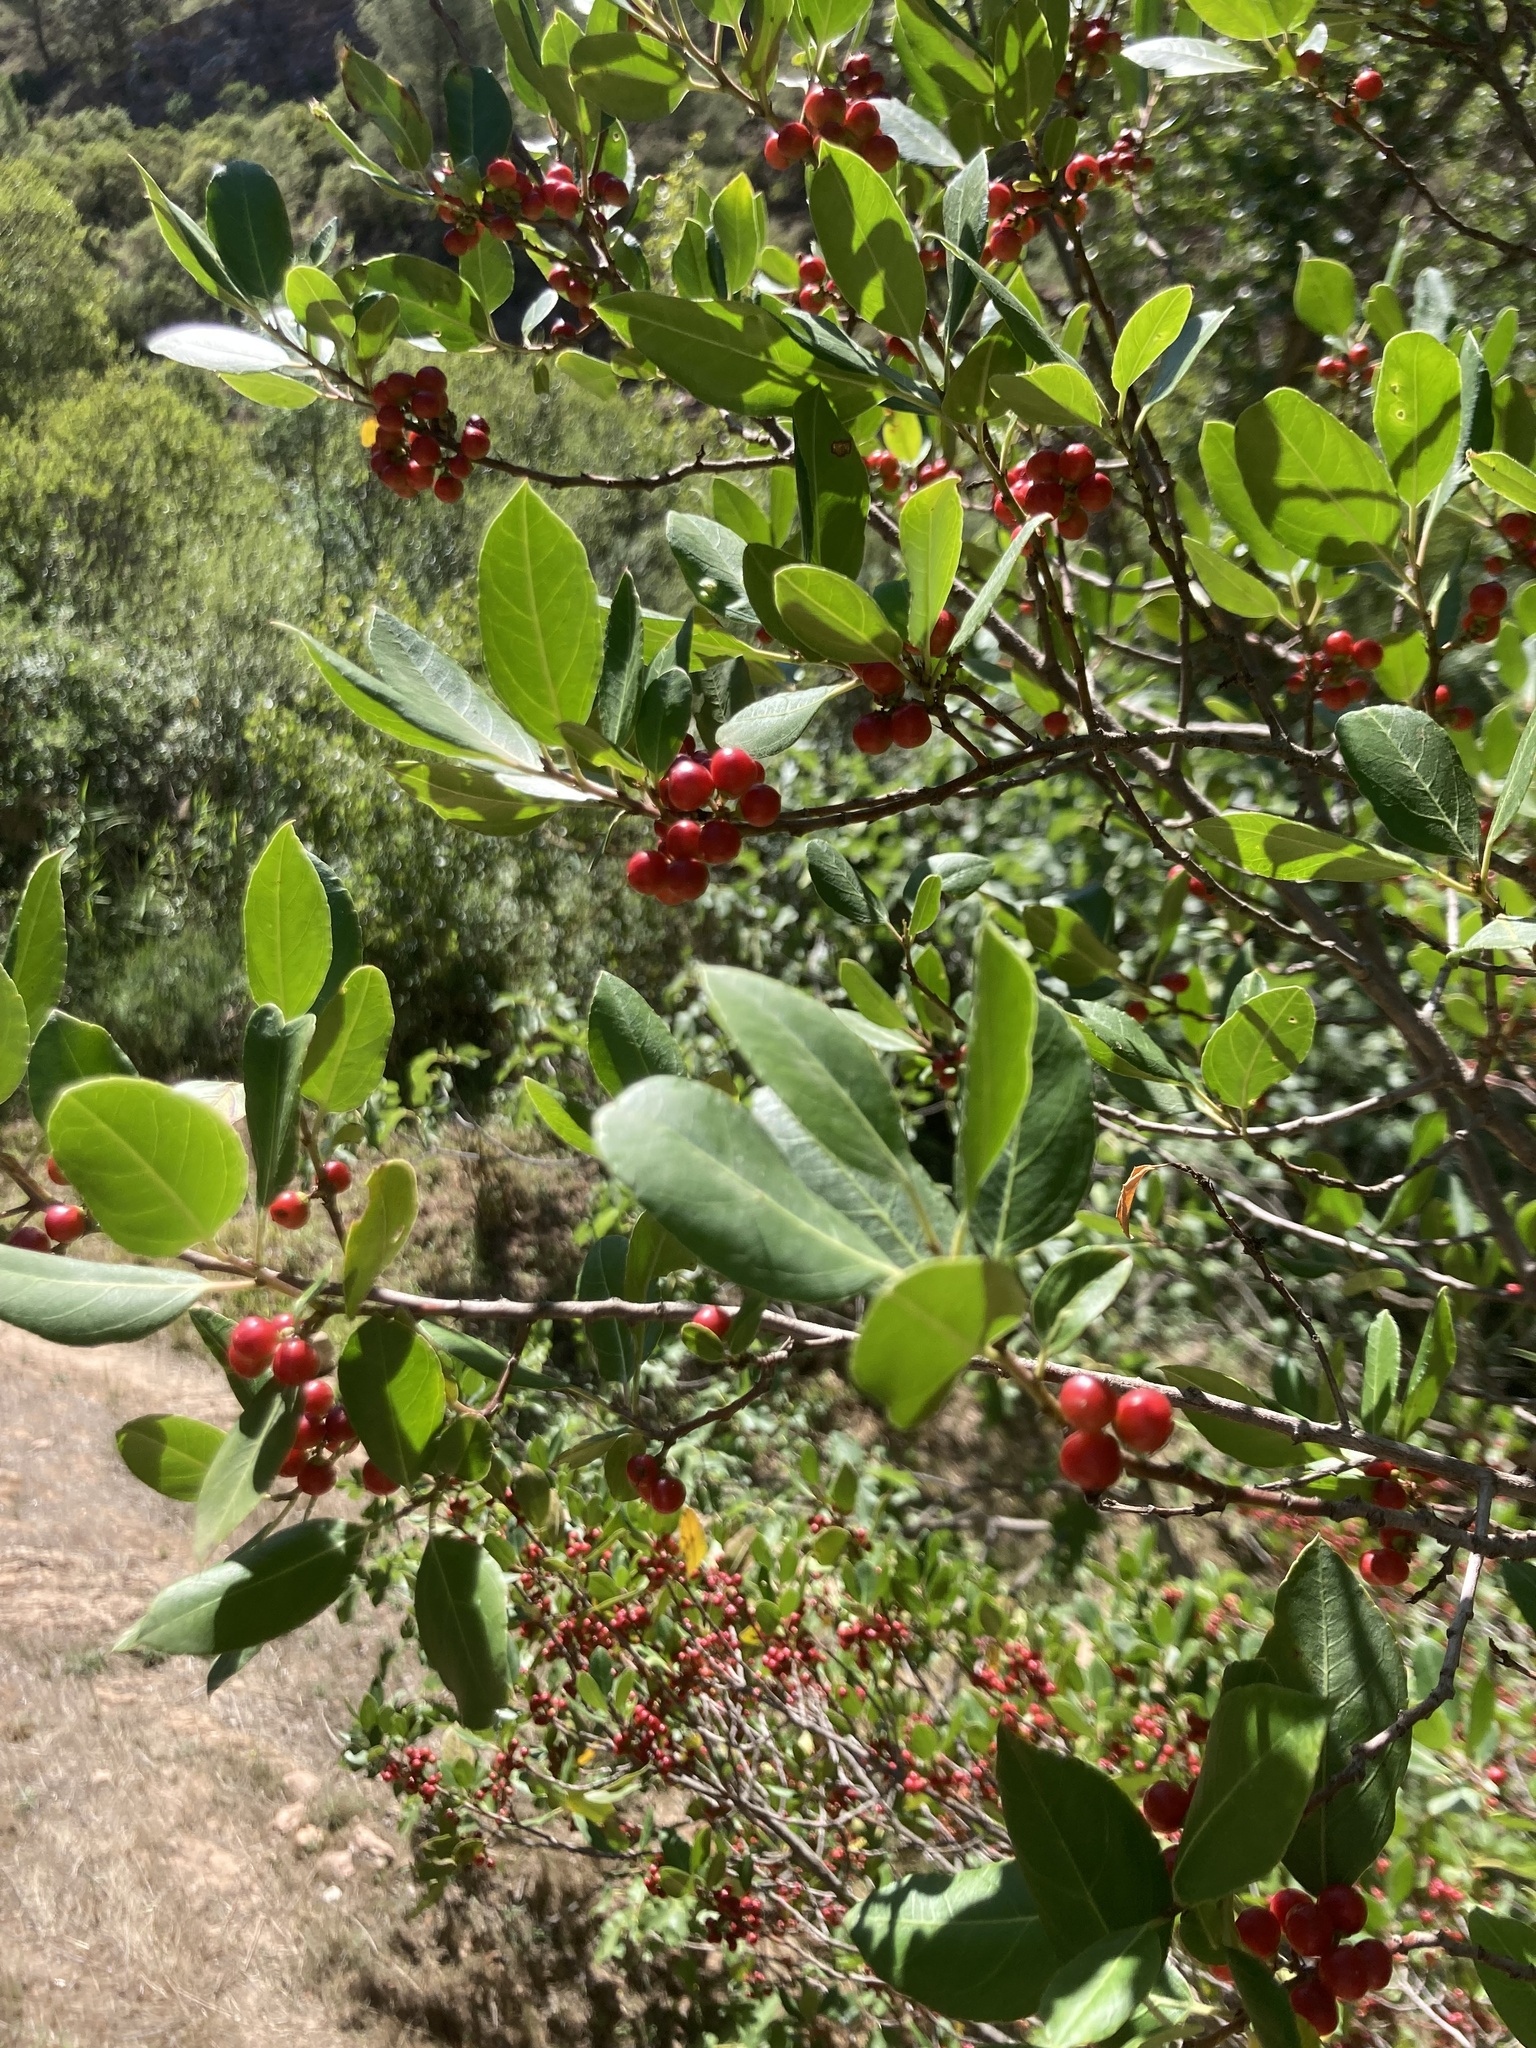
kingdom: Plantae
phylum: Tracheophyta
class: Magnoliopsida
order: Rosales
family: Rhamnaceae
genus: Rhamnus
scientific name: Rhamnus alaternus
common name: Mediterranean buckthorn
